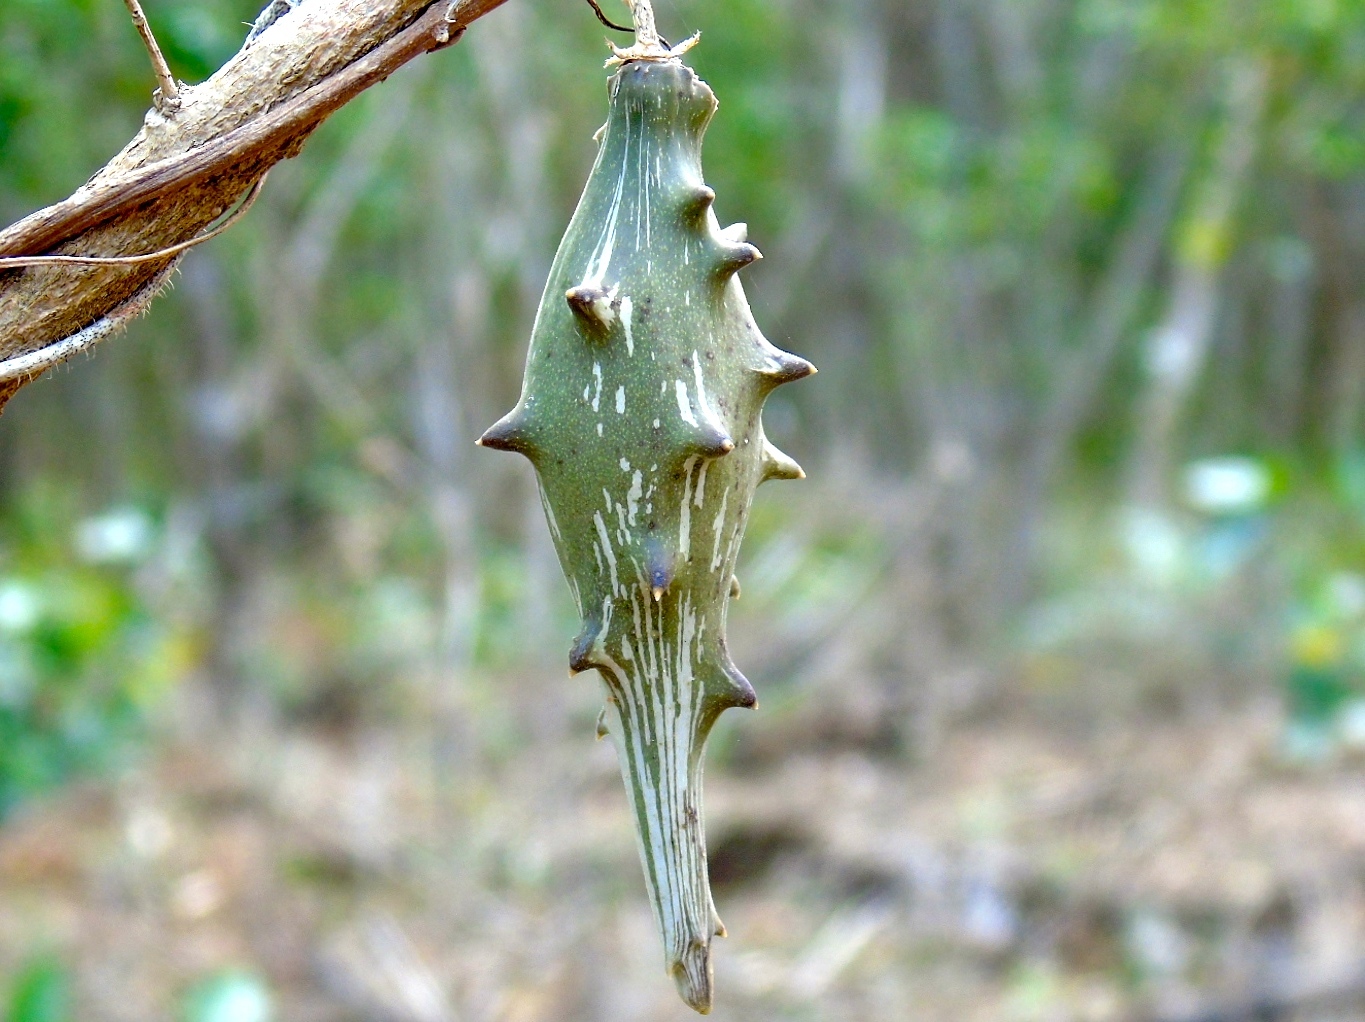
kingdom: Plantae
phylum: Tracheophyta
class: Magnoliopsida
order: Gentianales
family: Apocynaceae
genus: Dictyanthus
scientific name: Dictyanthus
